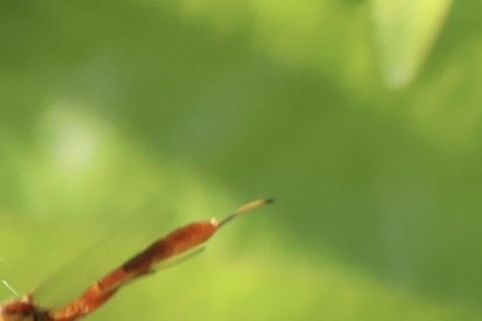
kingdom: Animalia
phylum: Arthropoda
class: Insecta
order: Hymenoptera
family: Ichneumonidae
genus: Grotea
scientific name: Grotea californica
